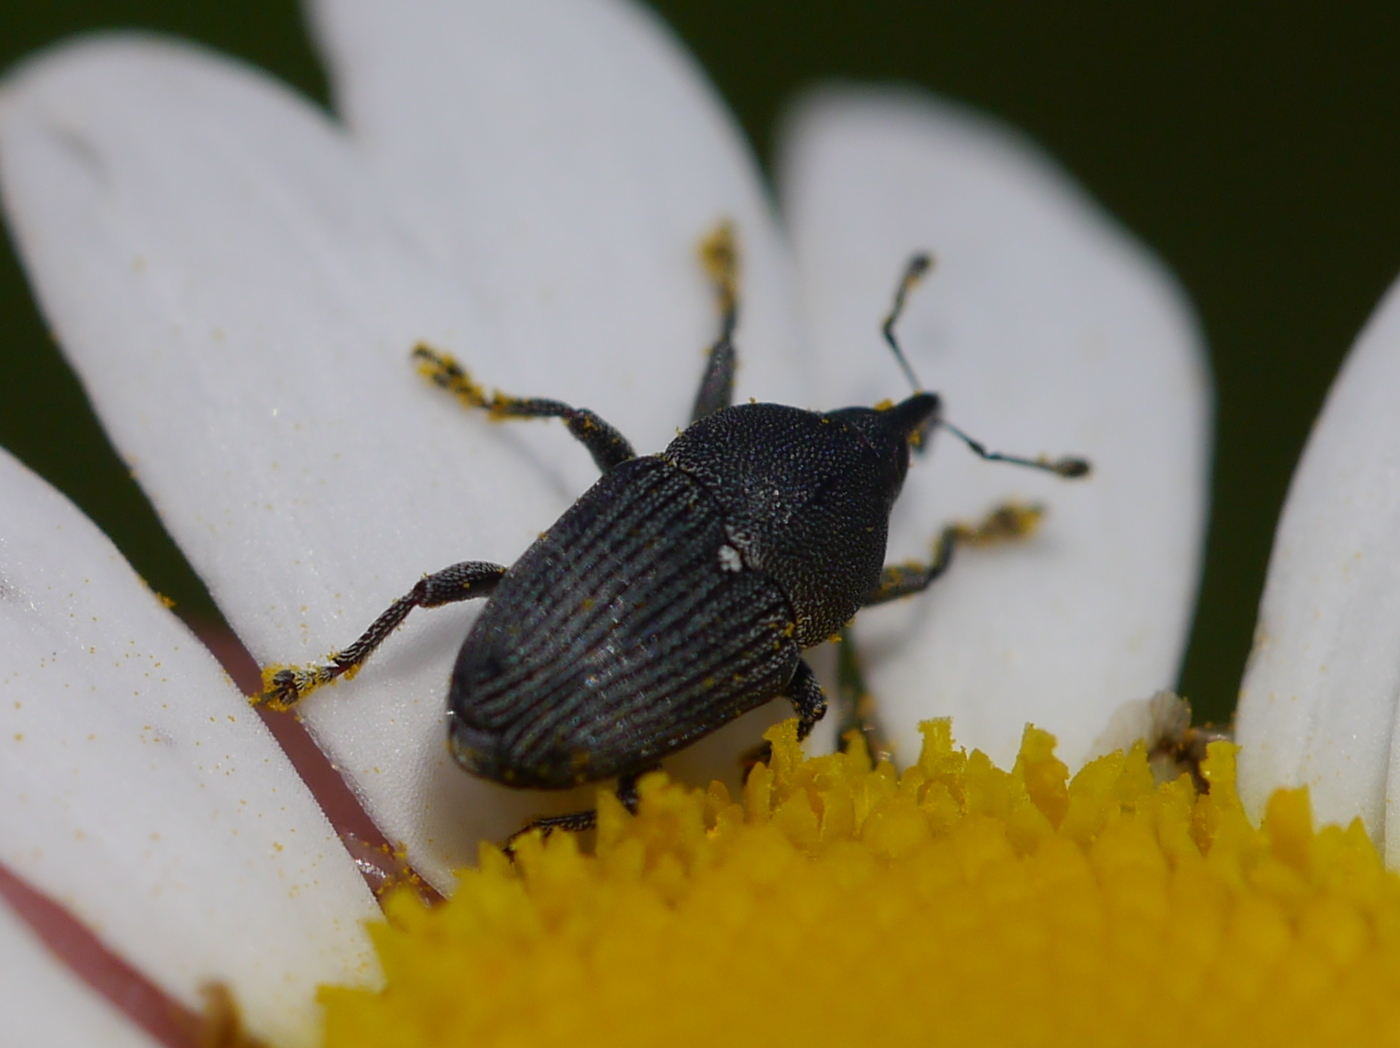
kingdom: Animalia
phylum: Arthropoda
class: Insecta
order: Coleoptera
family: Curculionidae
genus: Odontocorynus
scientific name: Odontocorynus salebrosus
